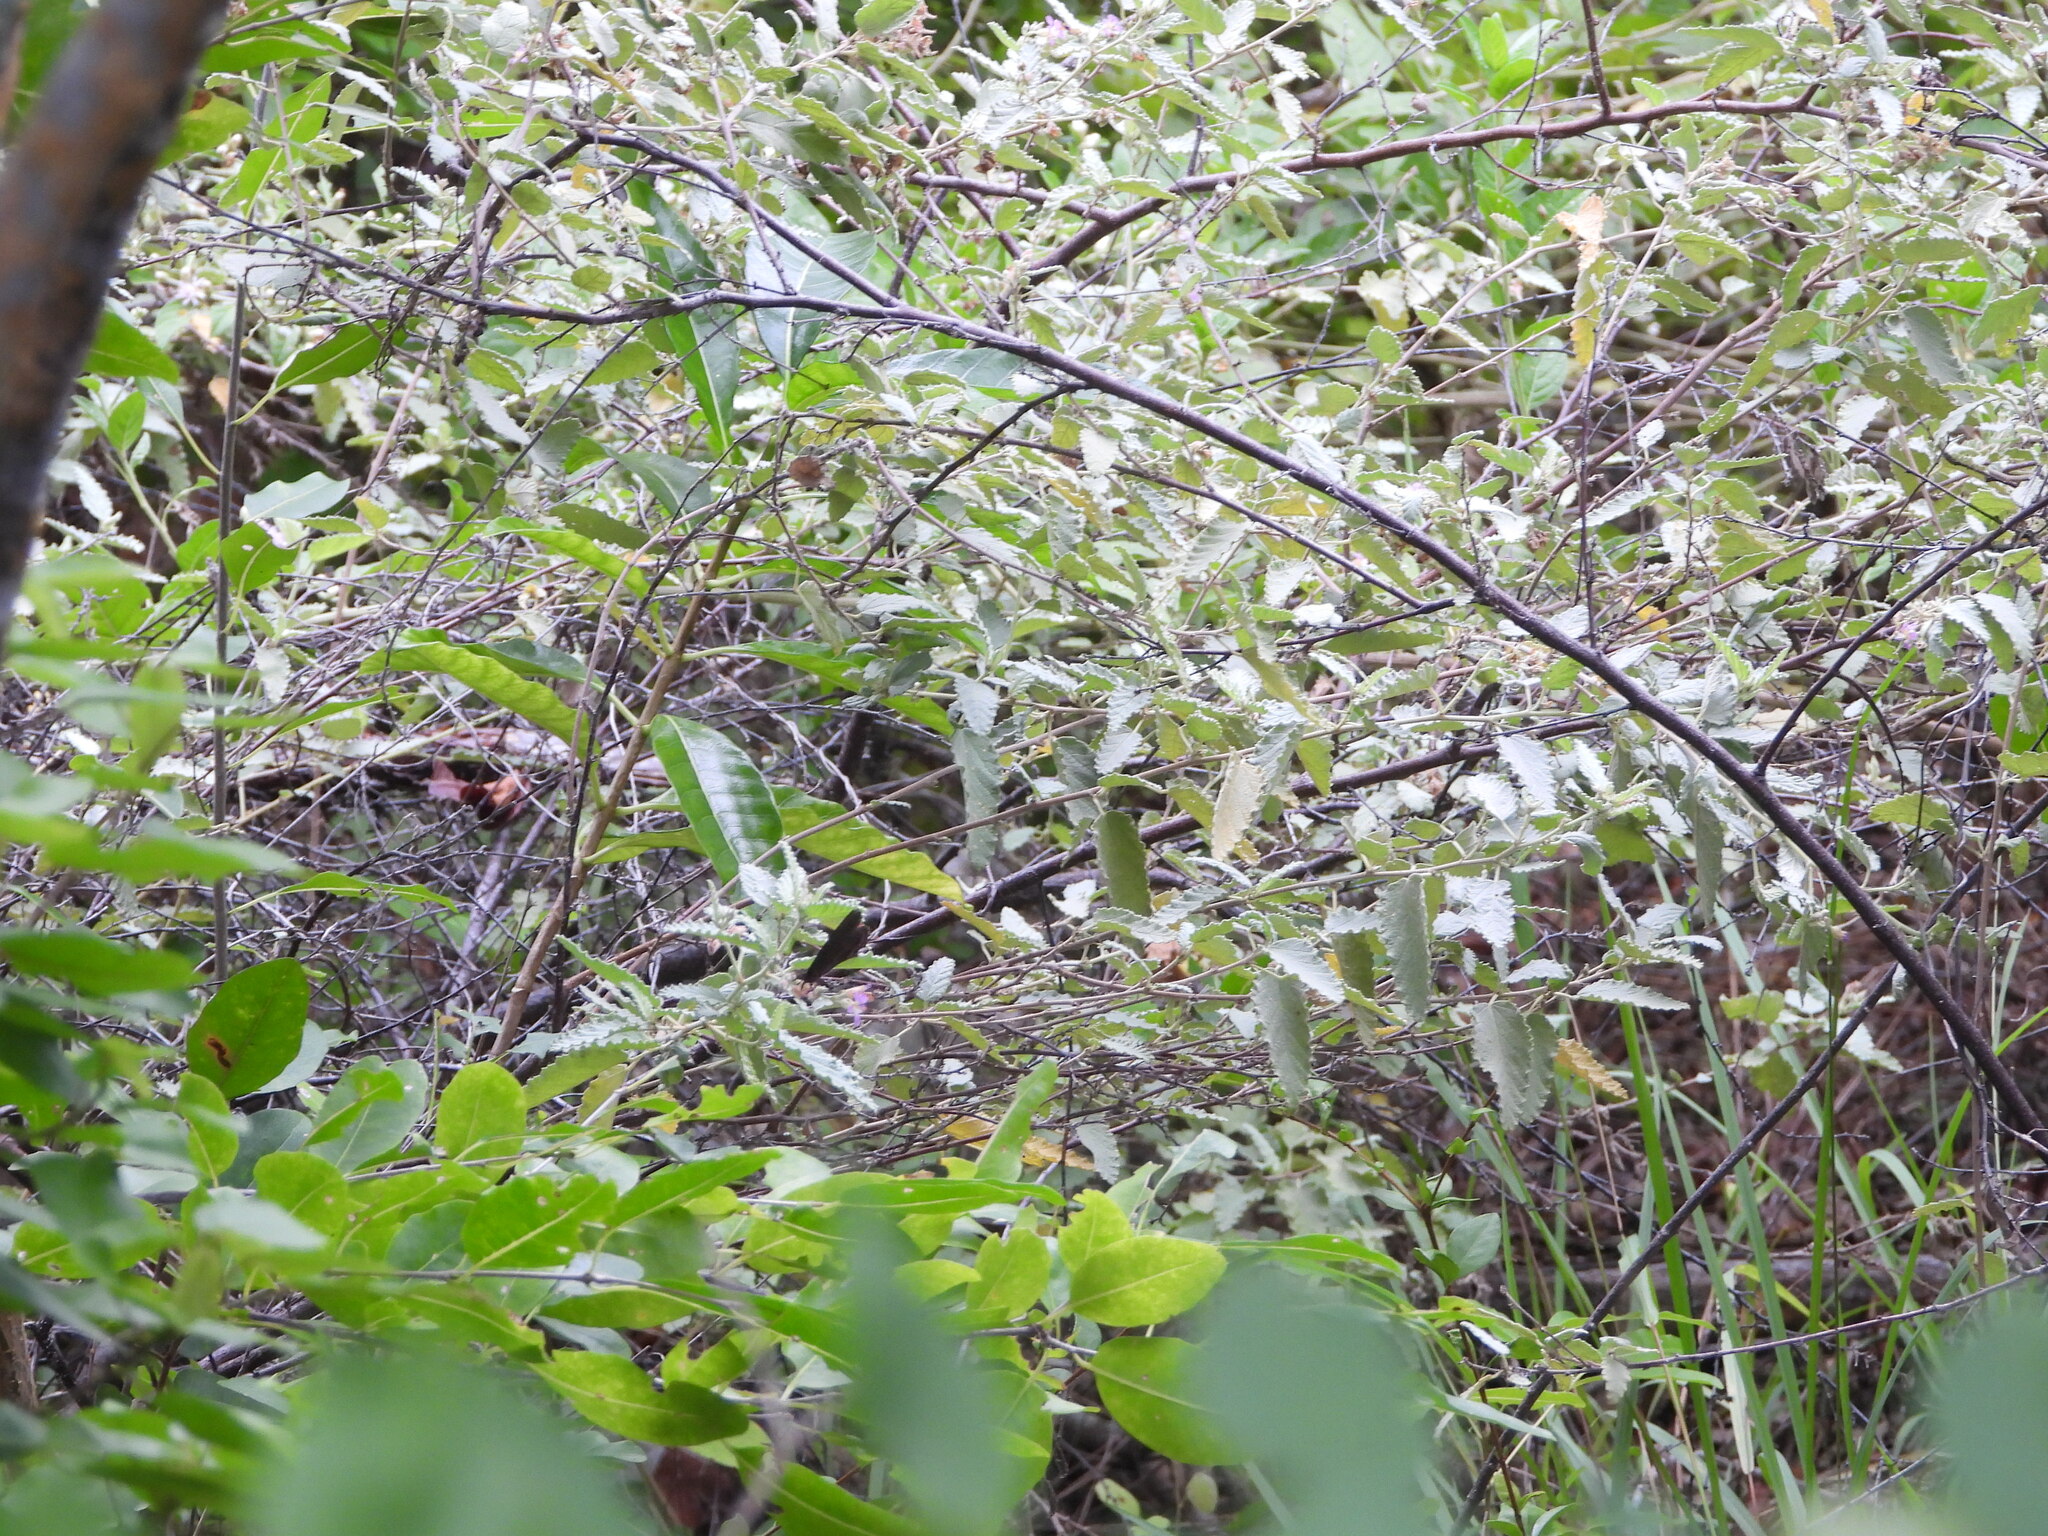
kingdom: Animalia
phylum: Arthropoda
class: Insecta
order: Lepidoptera
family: Nymphalidae
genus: Cymatogramma
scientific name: Cymatogramma echemus
